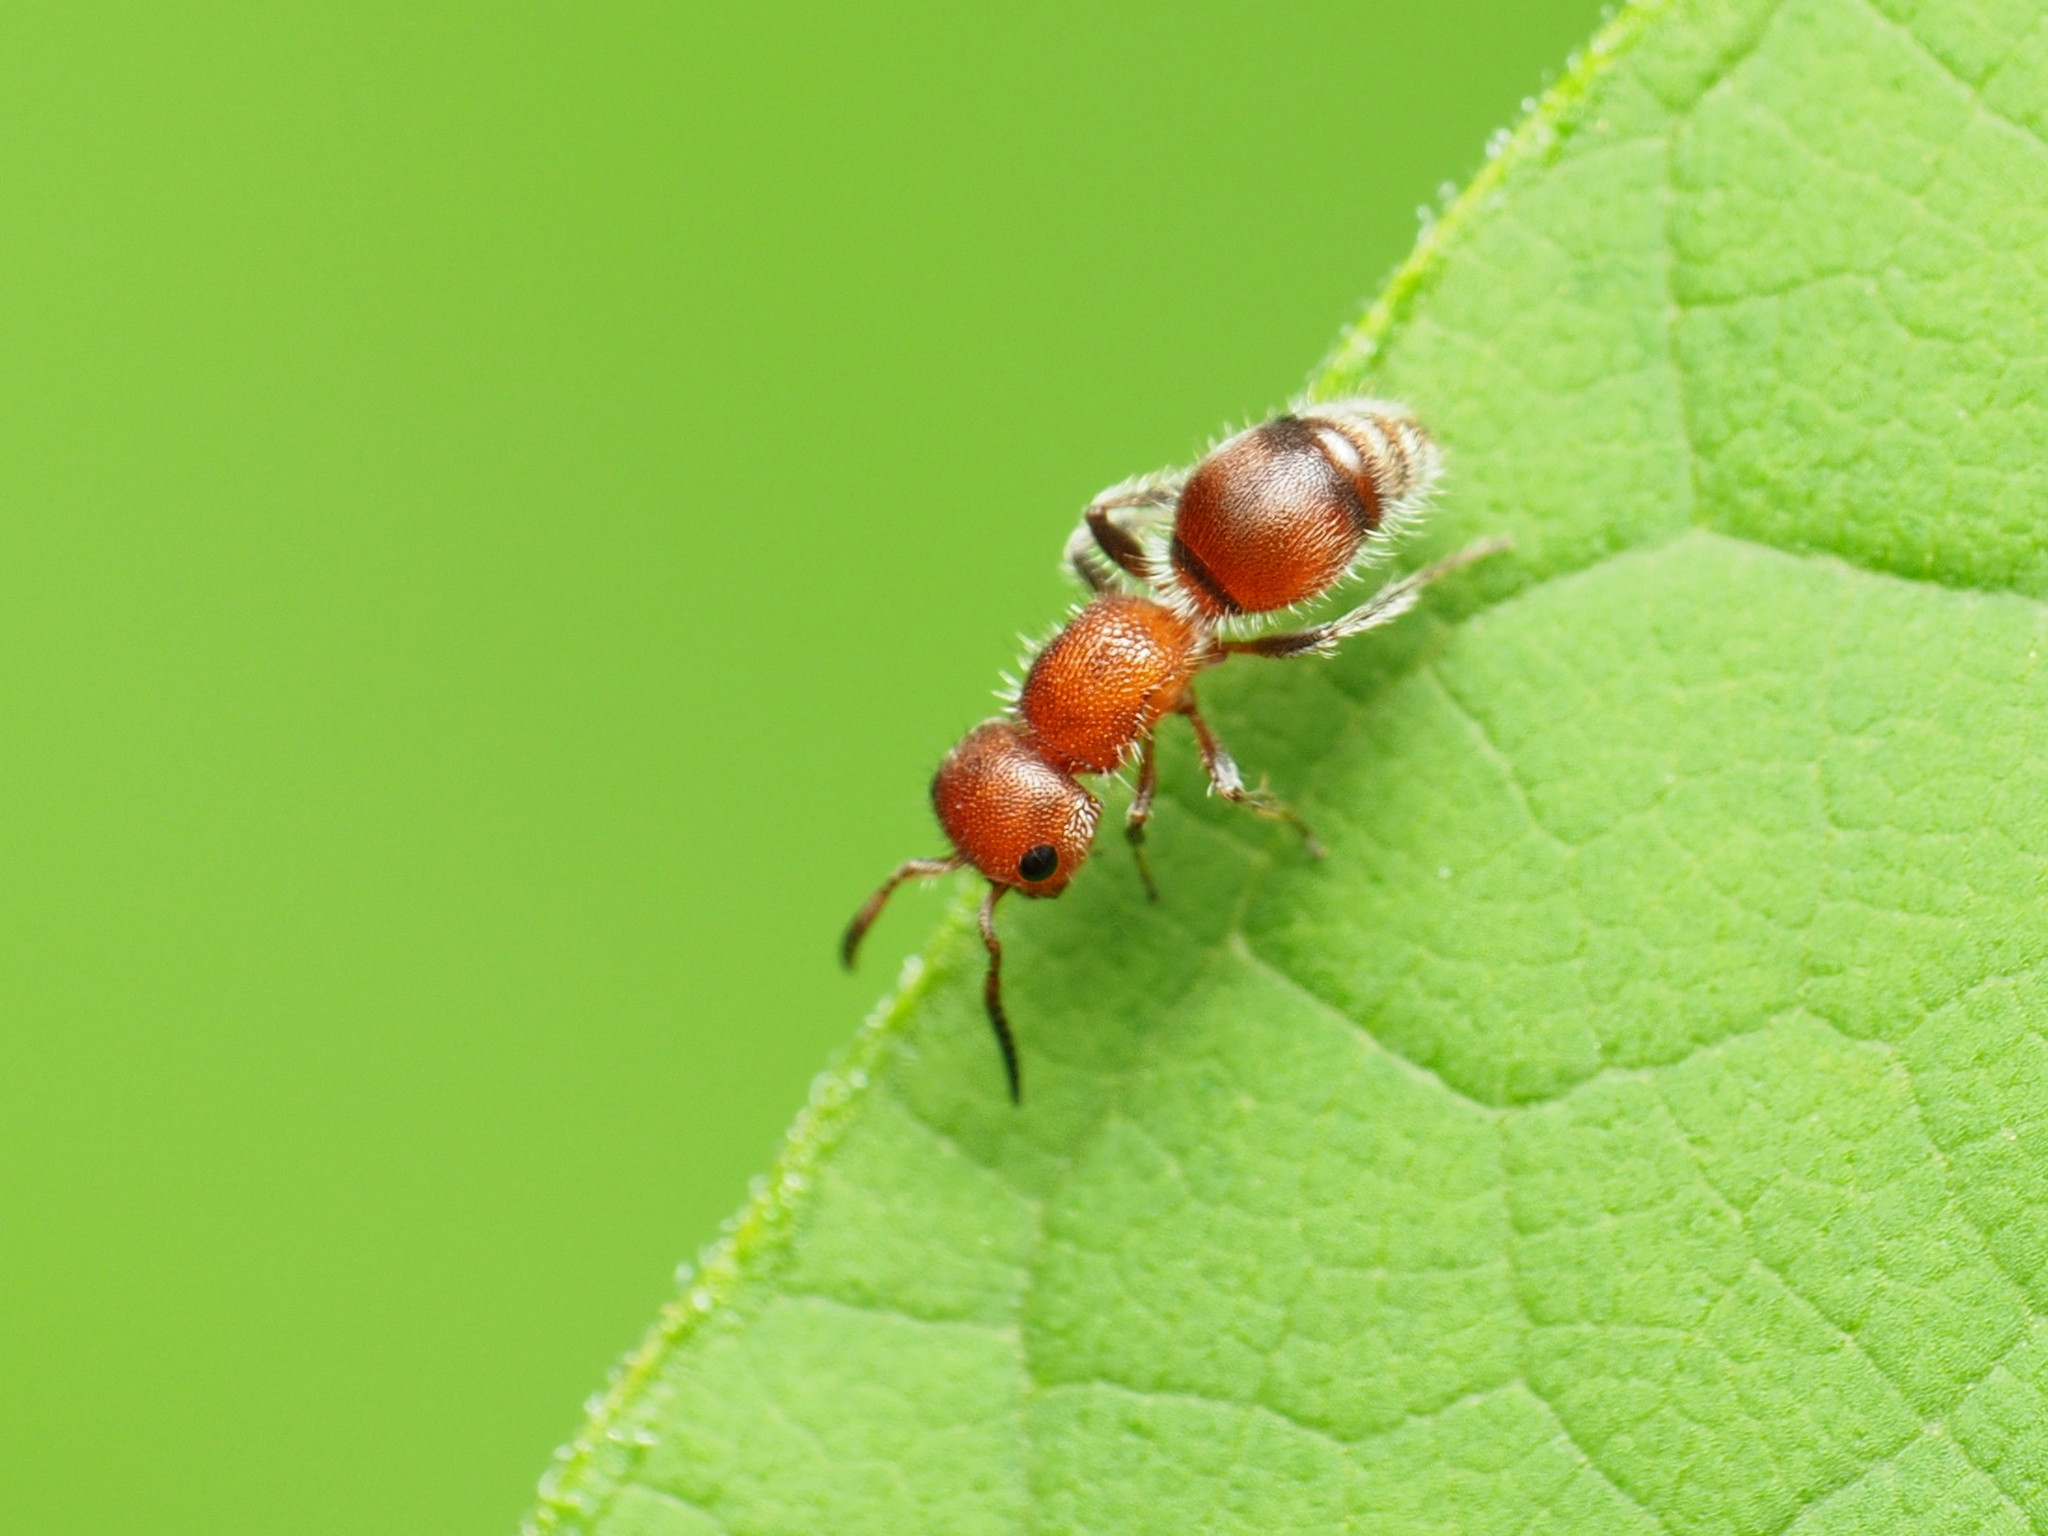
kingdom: Animalia
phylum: Arthropoda
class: Insecta
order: Hymenoptera
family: Mutillidae
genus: Pseudomethoca
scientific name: Pseudomethoca
